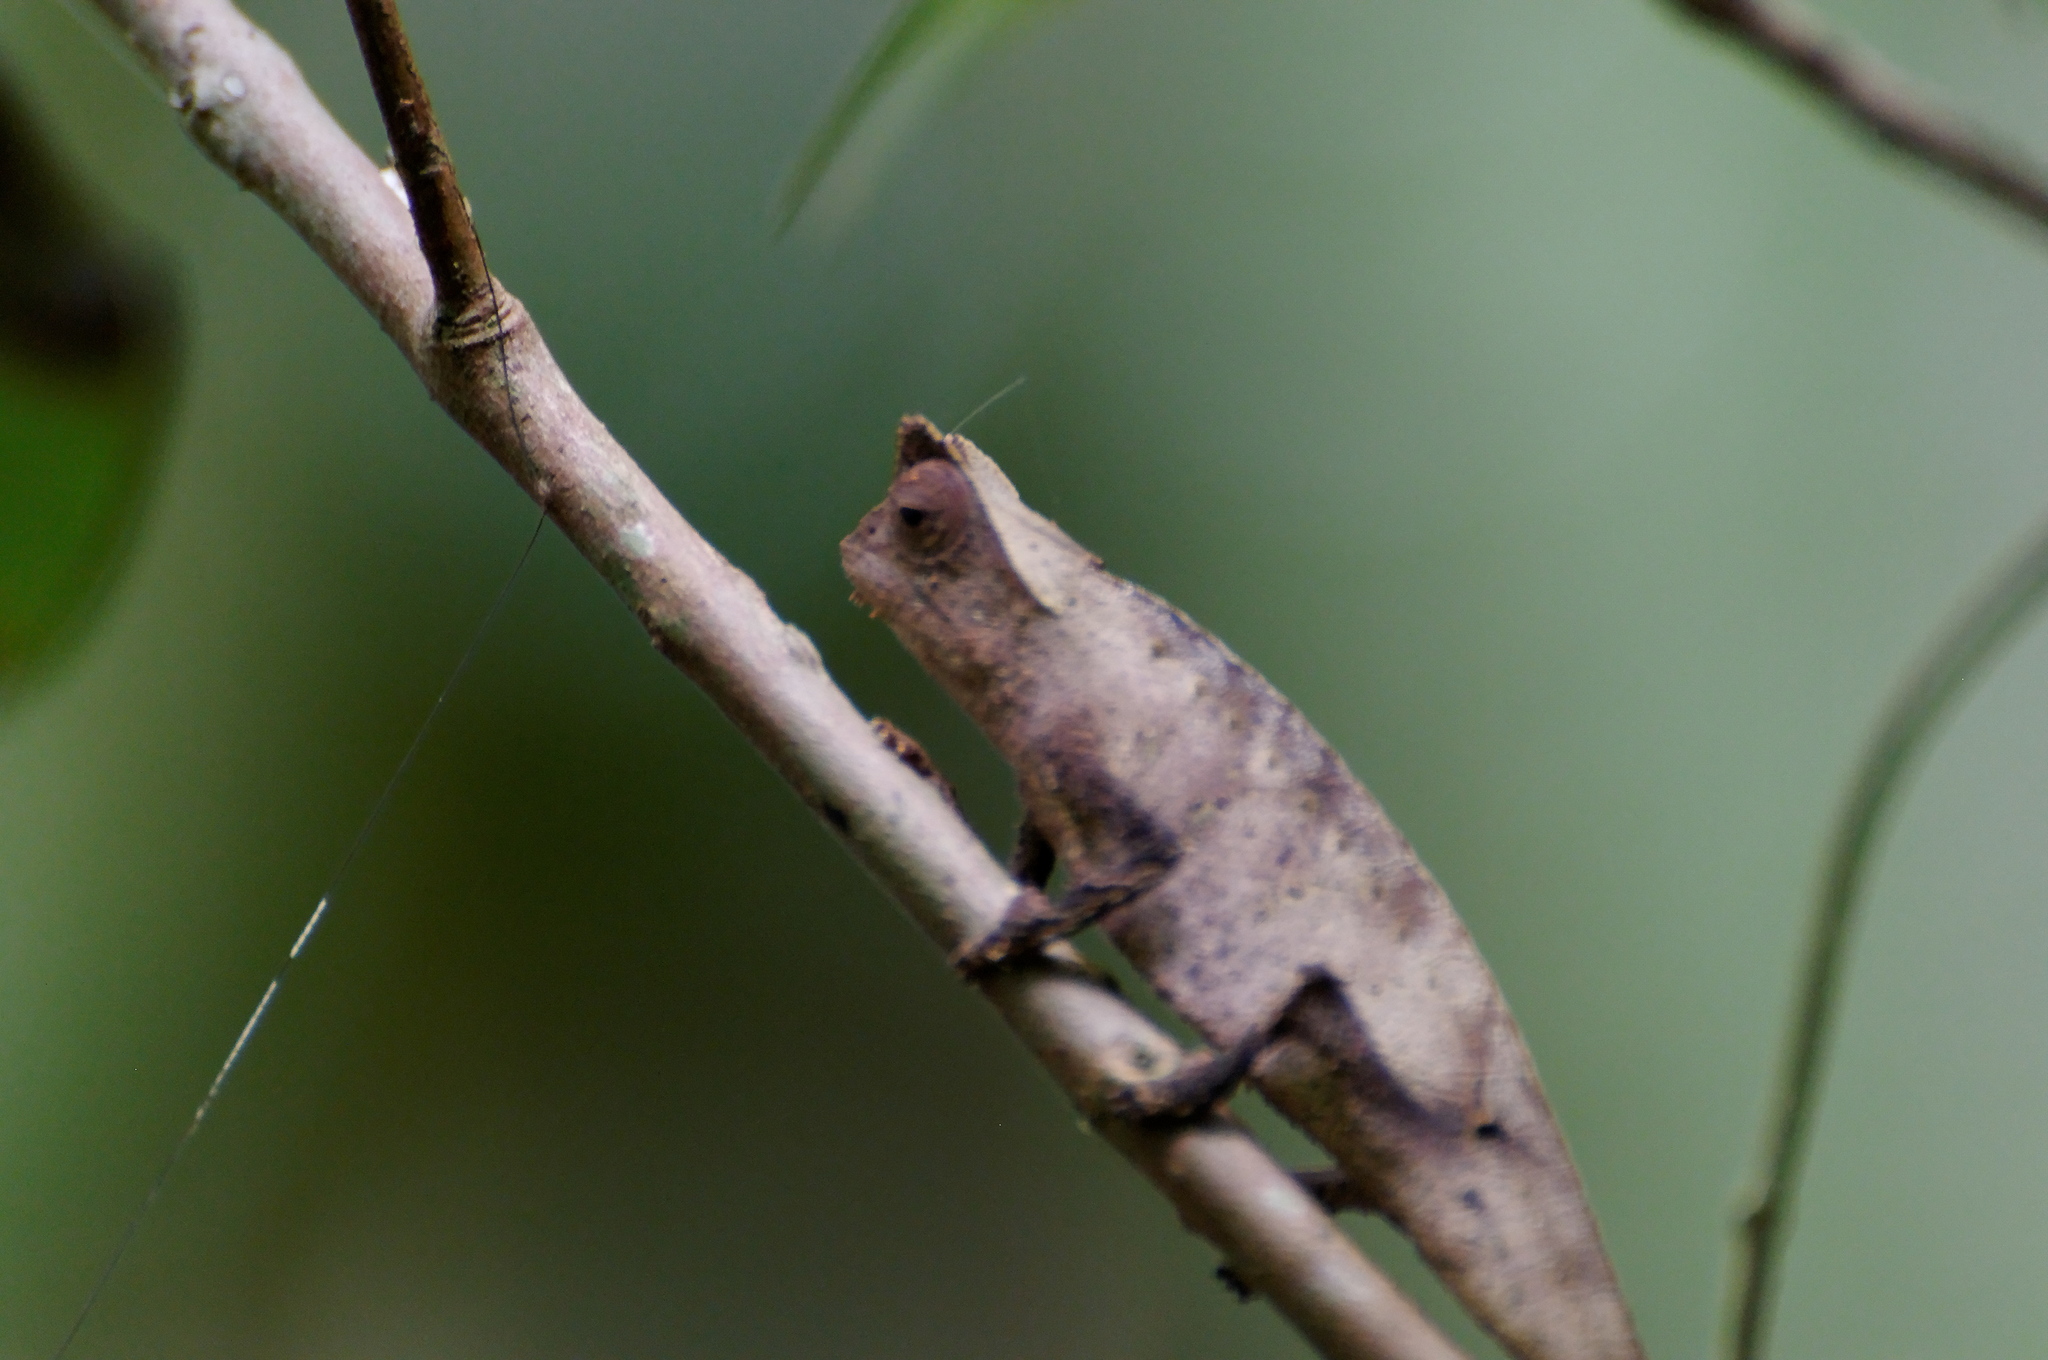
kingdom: Animalia
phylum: Chordata
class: Squamata
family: Chamaeleonidae
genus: Brookesia
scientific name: Brookesia superciliaris
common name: Brown leaf chameleon
